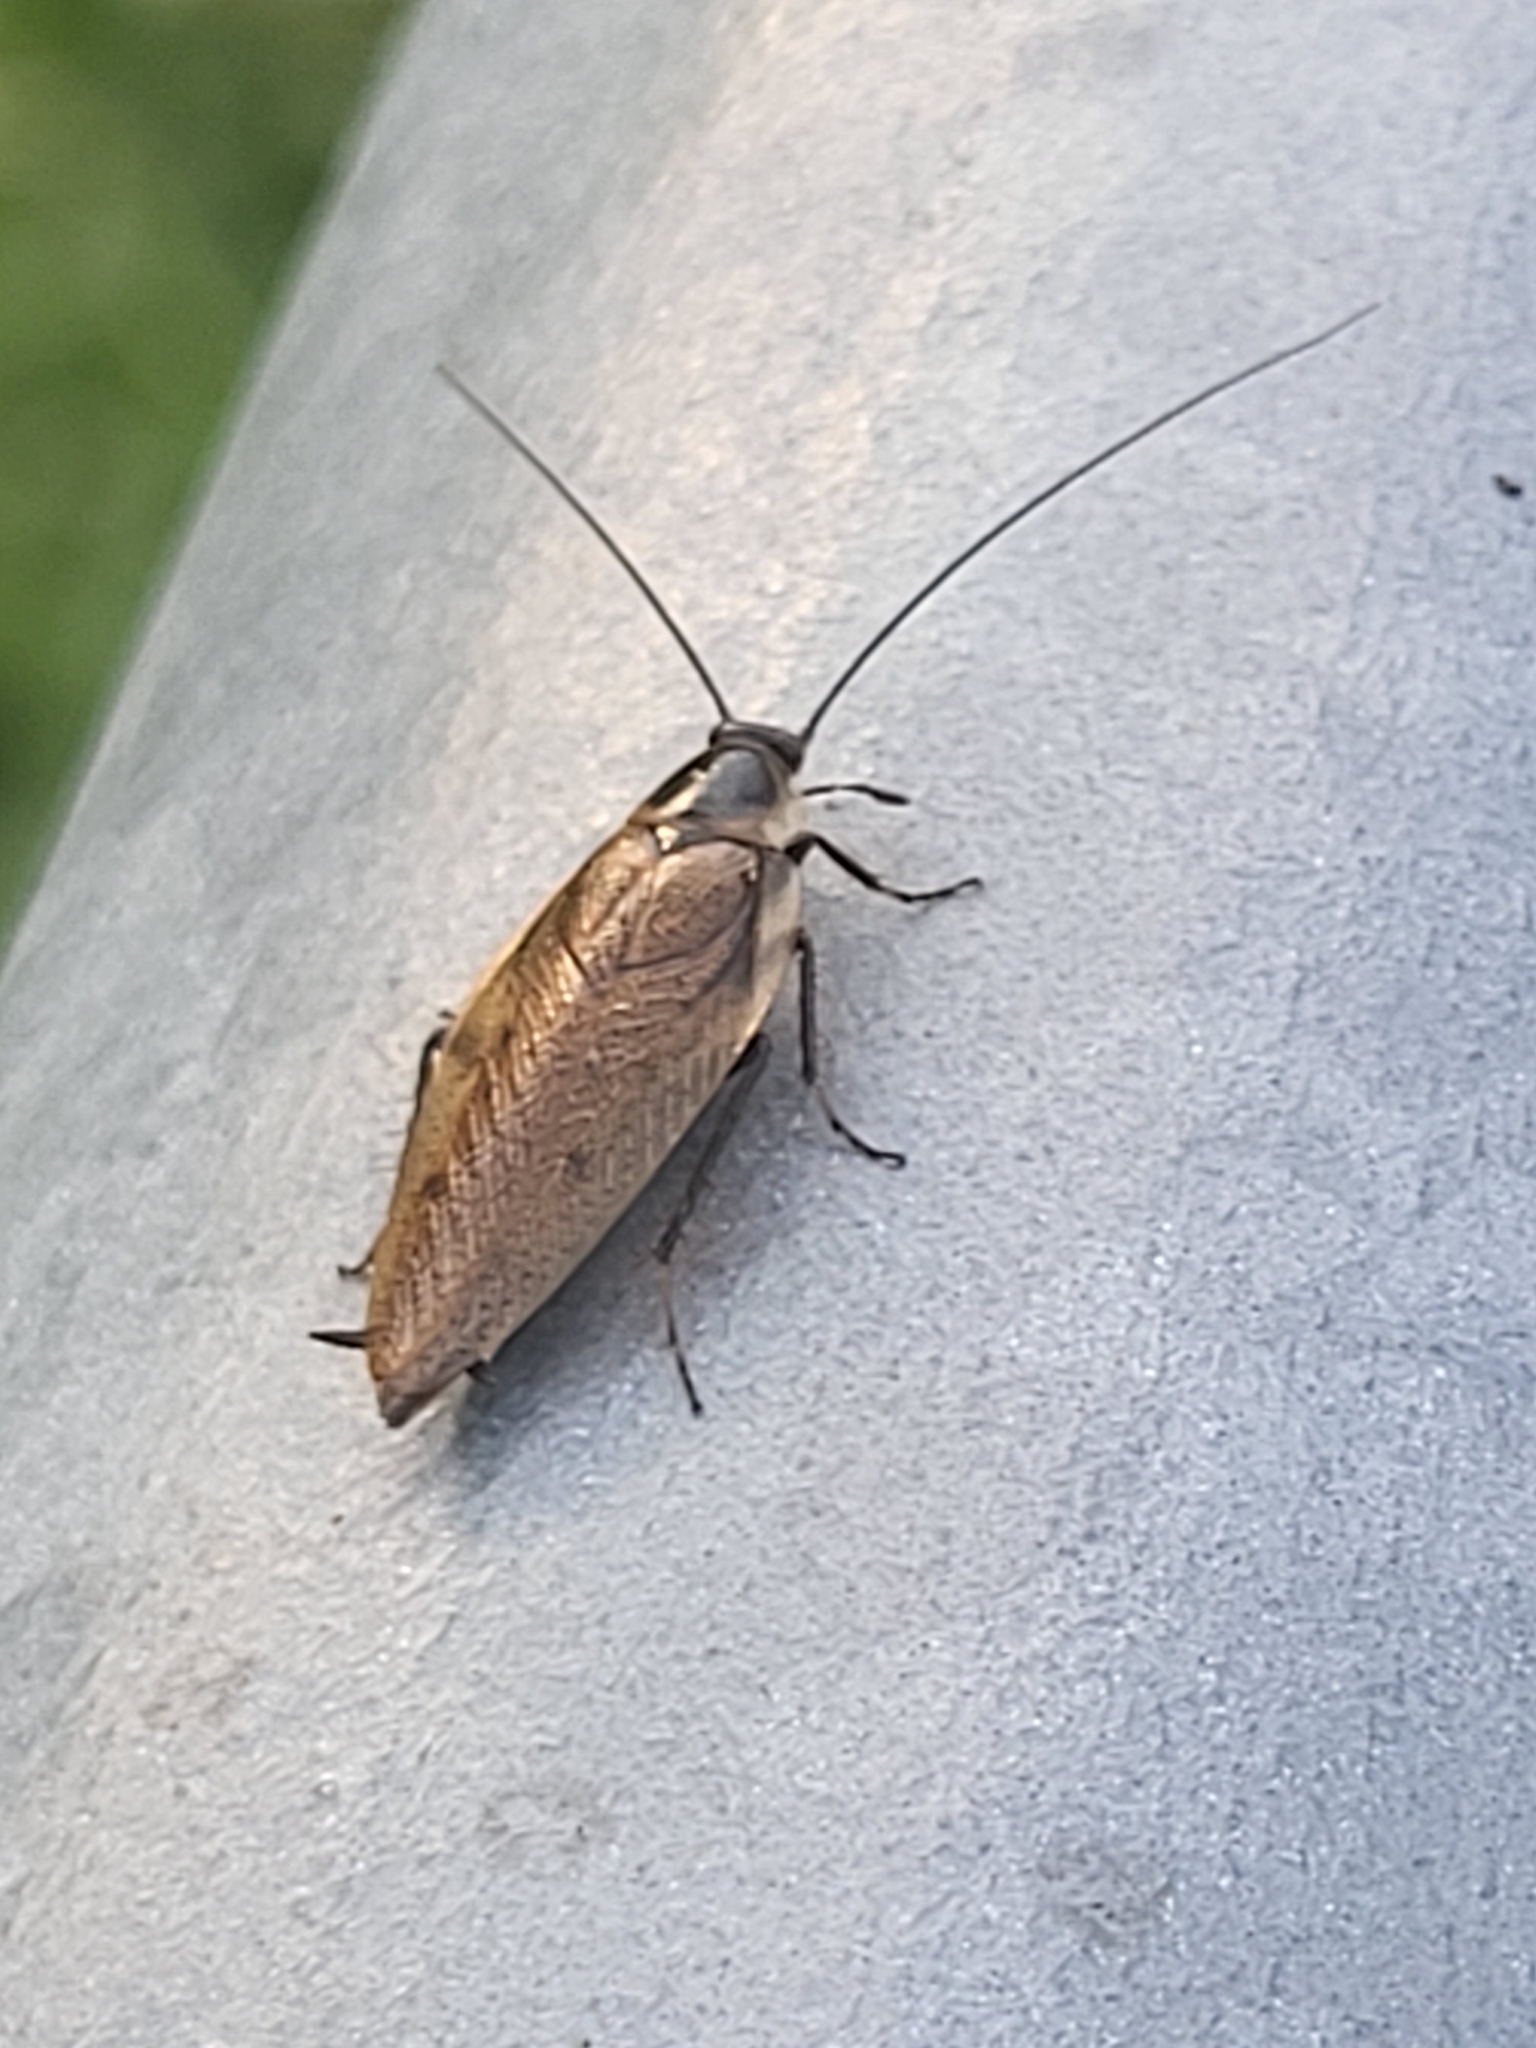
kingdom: Animalia
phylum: Arthropoda
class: Insecta
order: Blattodea
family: Ectobiidae
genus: Ectobius
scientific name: Ectobius lapponicus
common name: Dusky cockroach
